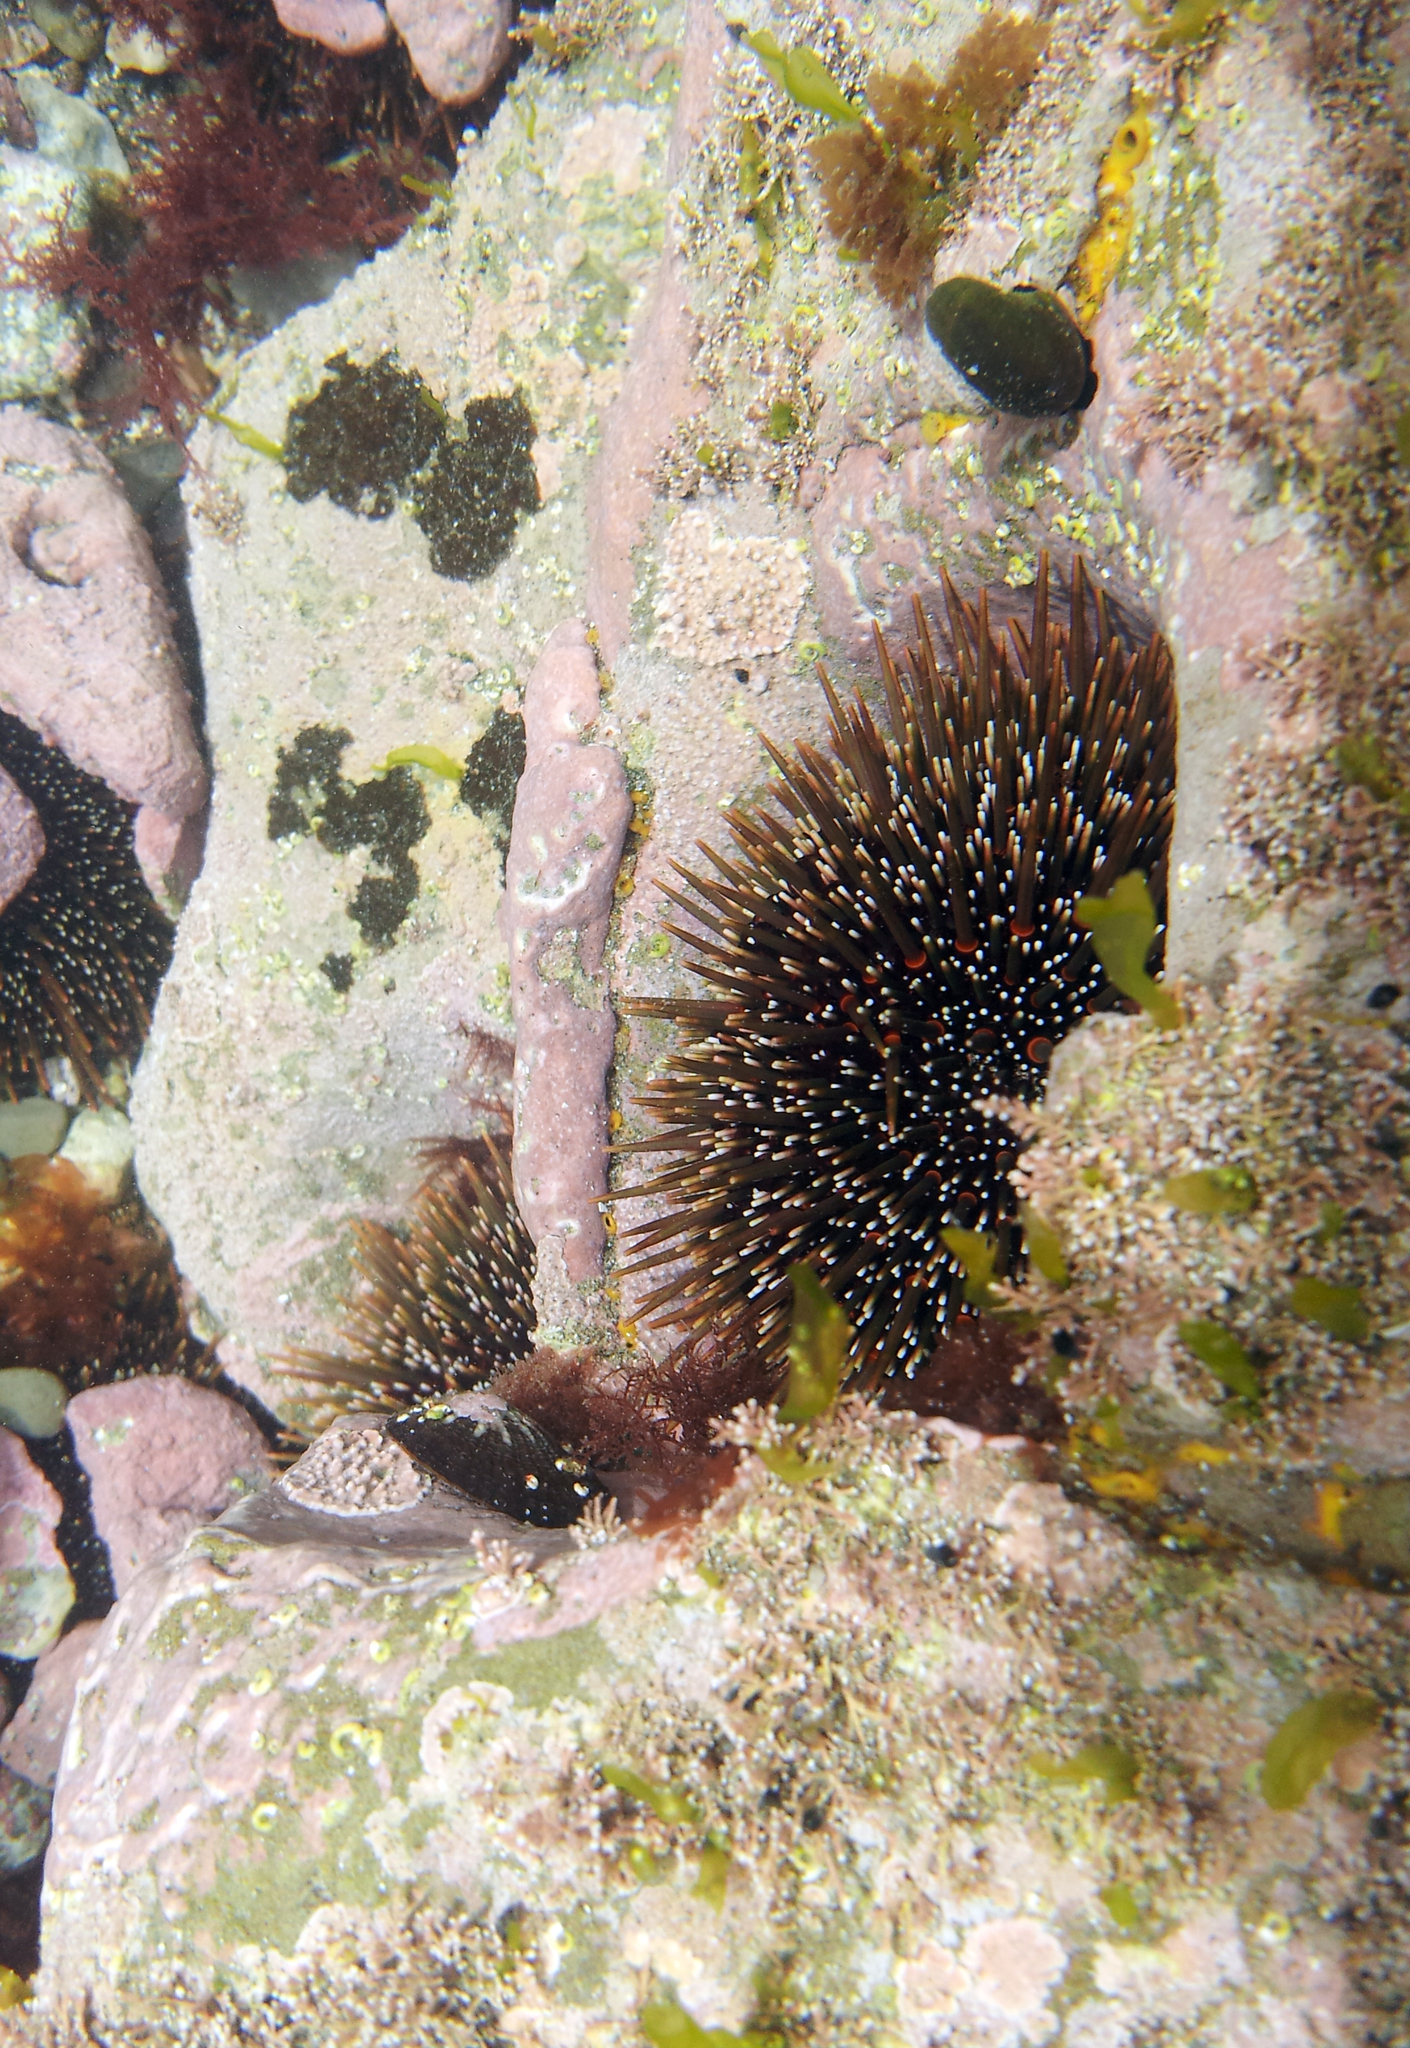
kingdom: Animalia
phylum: Echinodermata
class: Echinoidea
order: Camarodonta
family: Echinometridae
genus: Evechinus
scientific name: Evechinus chloroticus
